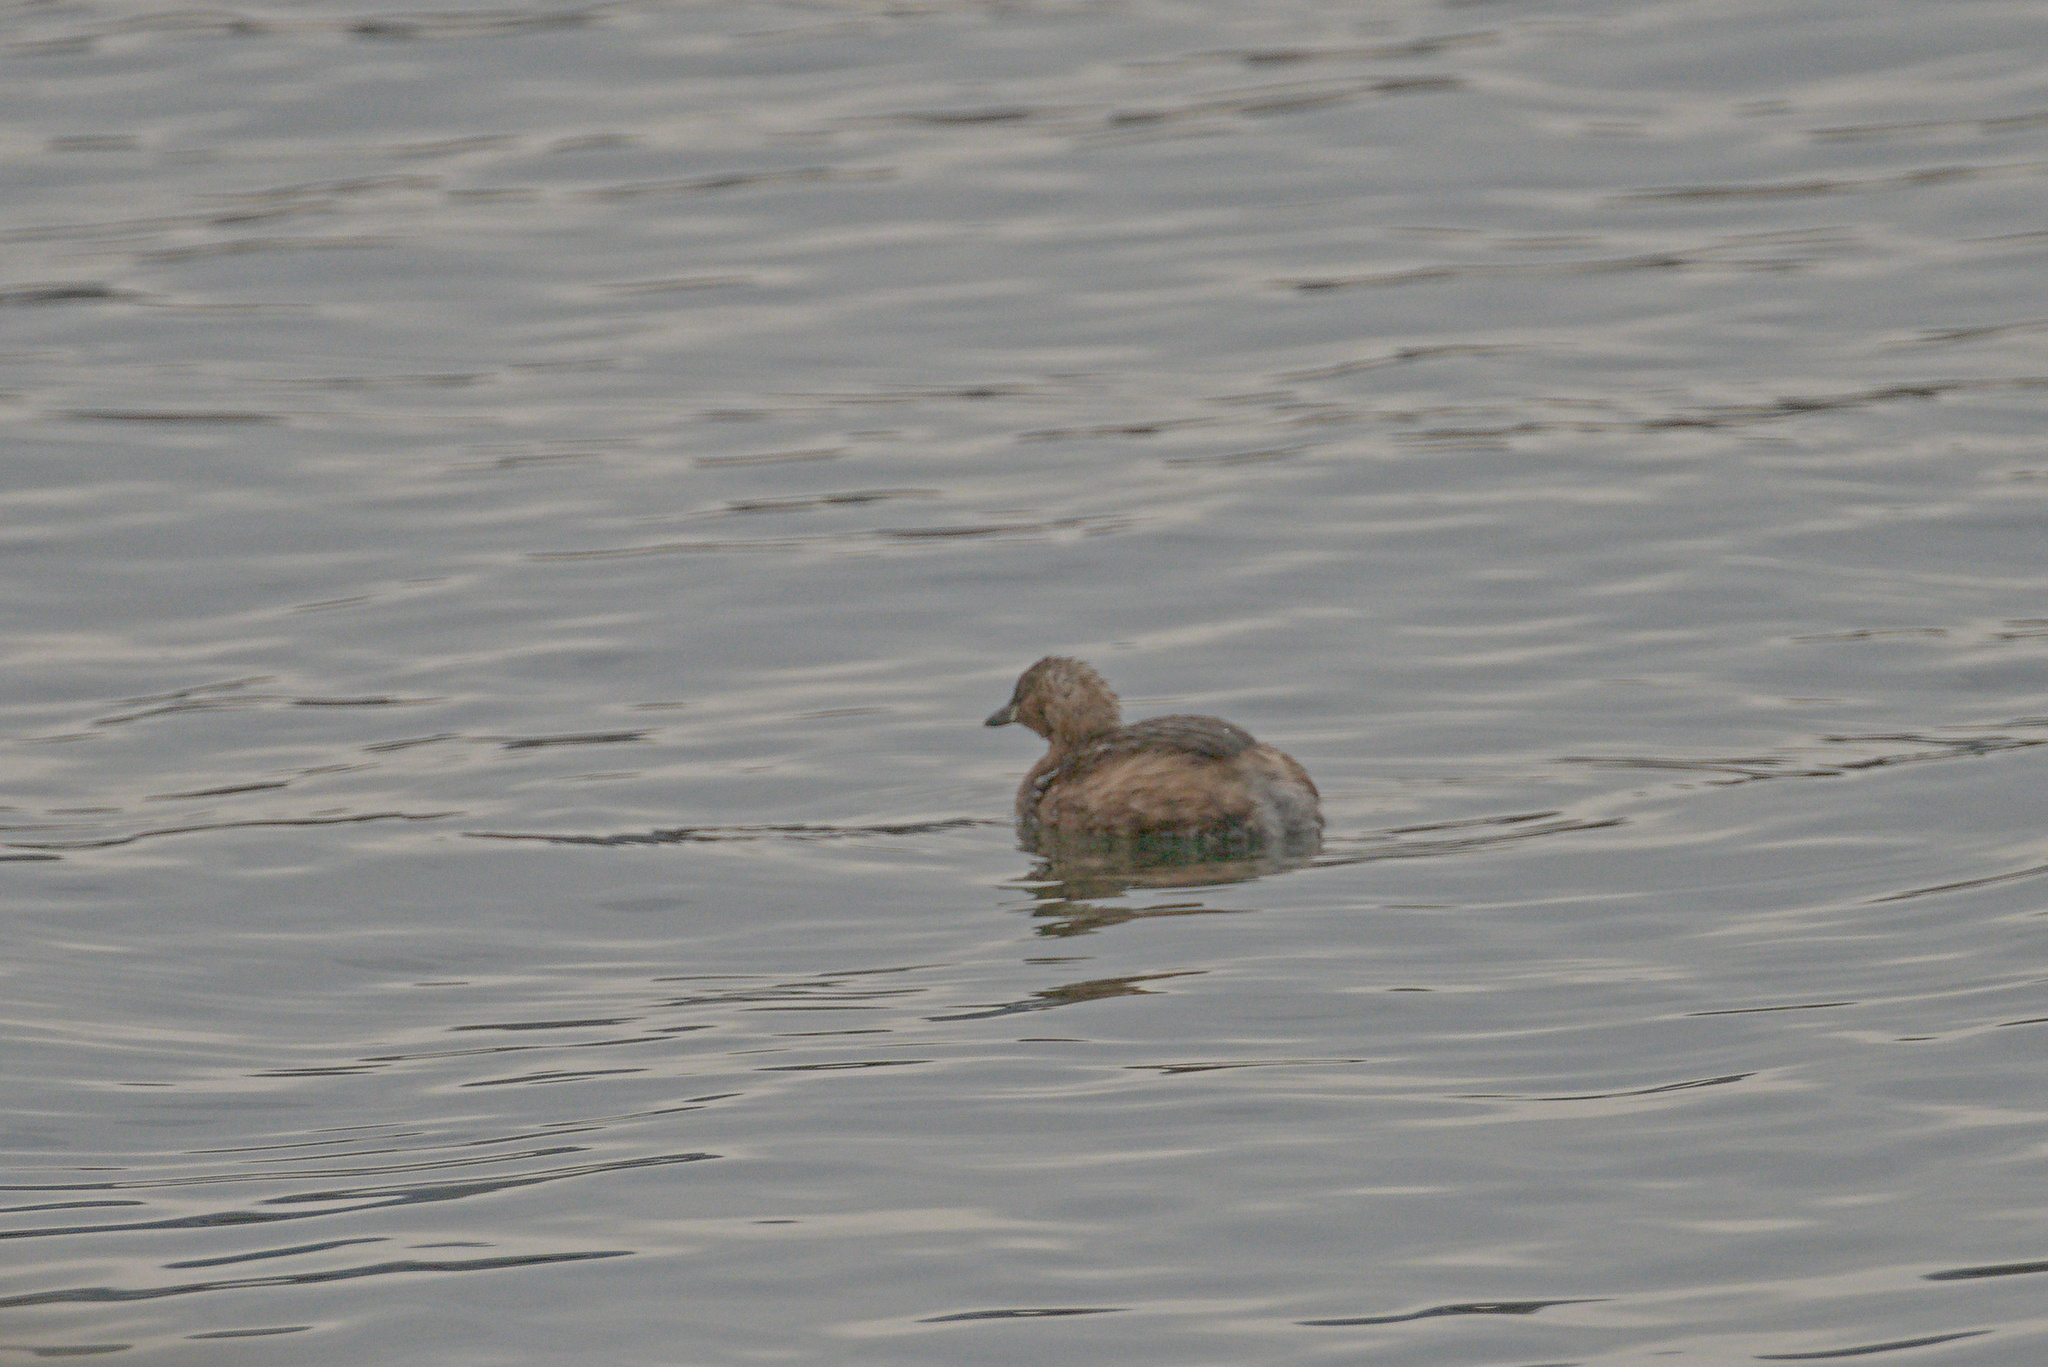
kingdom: Animalia
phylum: Chordata
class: Aves
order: Podicipediformes
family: Podicipedidae
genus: Tachybaptus
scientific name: Tachybaptus ruficollis
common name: Little grebe
